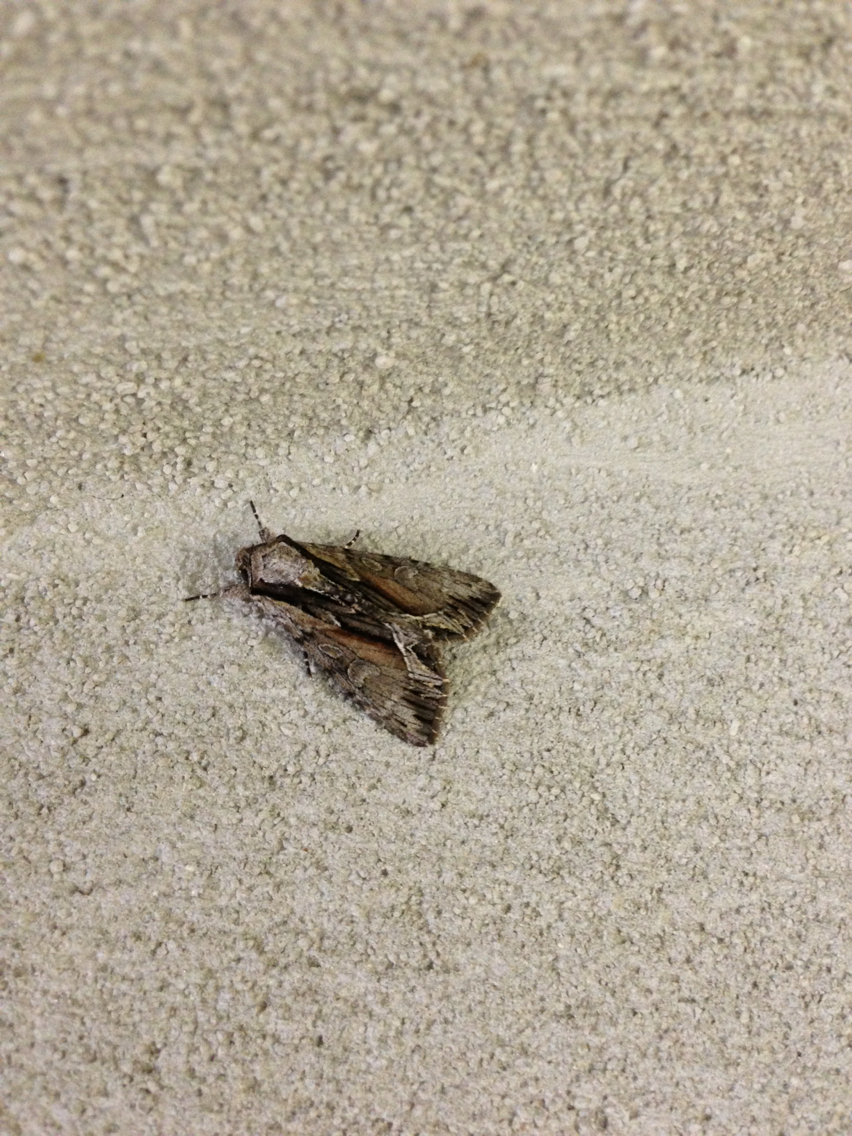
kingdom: Animalia
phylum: Arthropoda
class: Insecta
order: Lepidoptera
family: Noctuidae
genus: Hyppa
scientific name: Hyppa xylinoides
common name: Common hyppa moth
